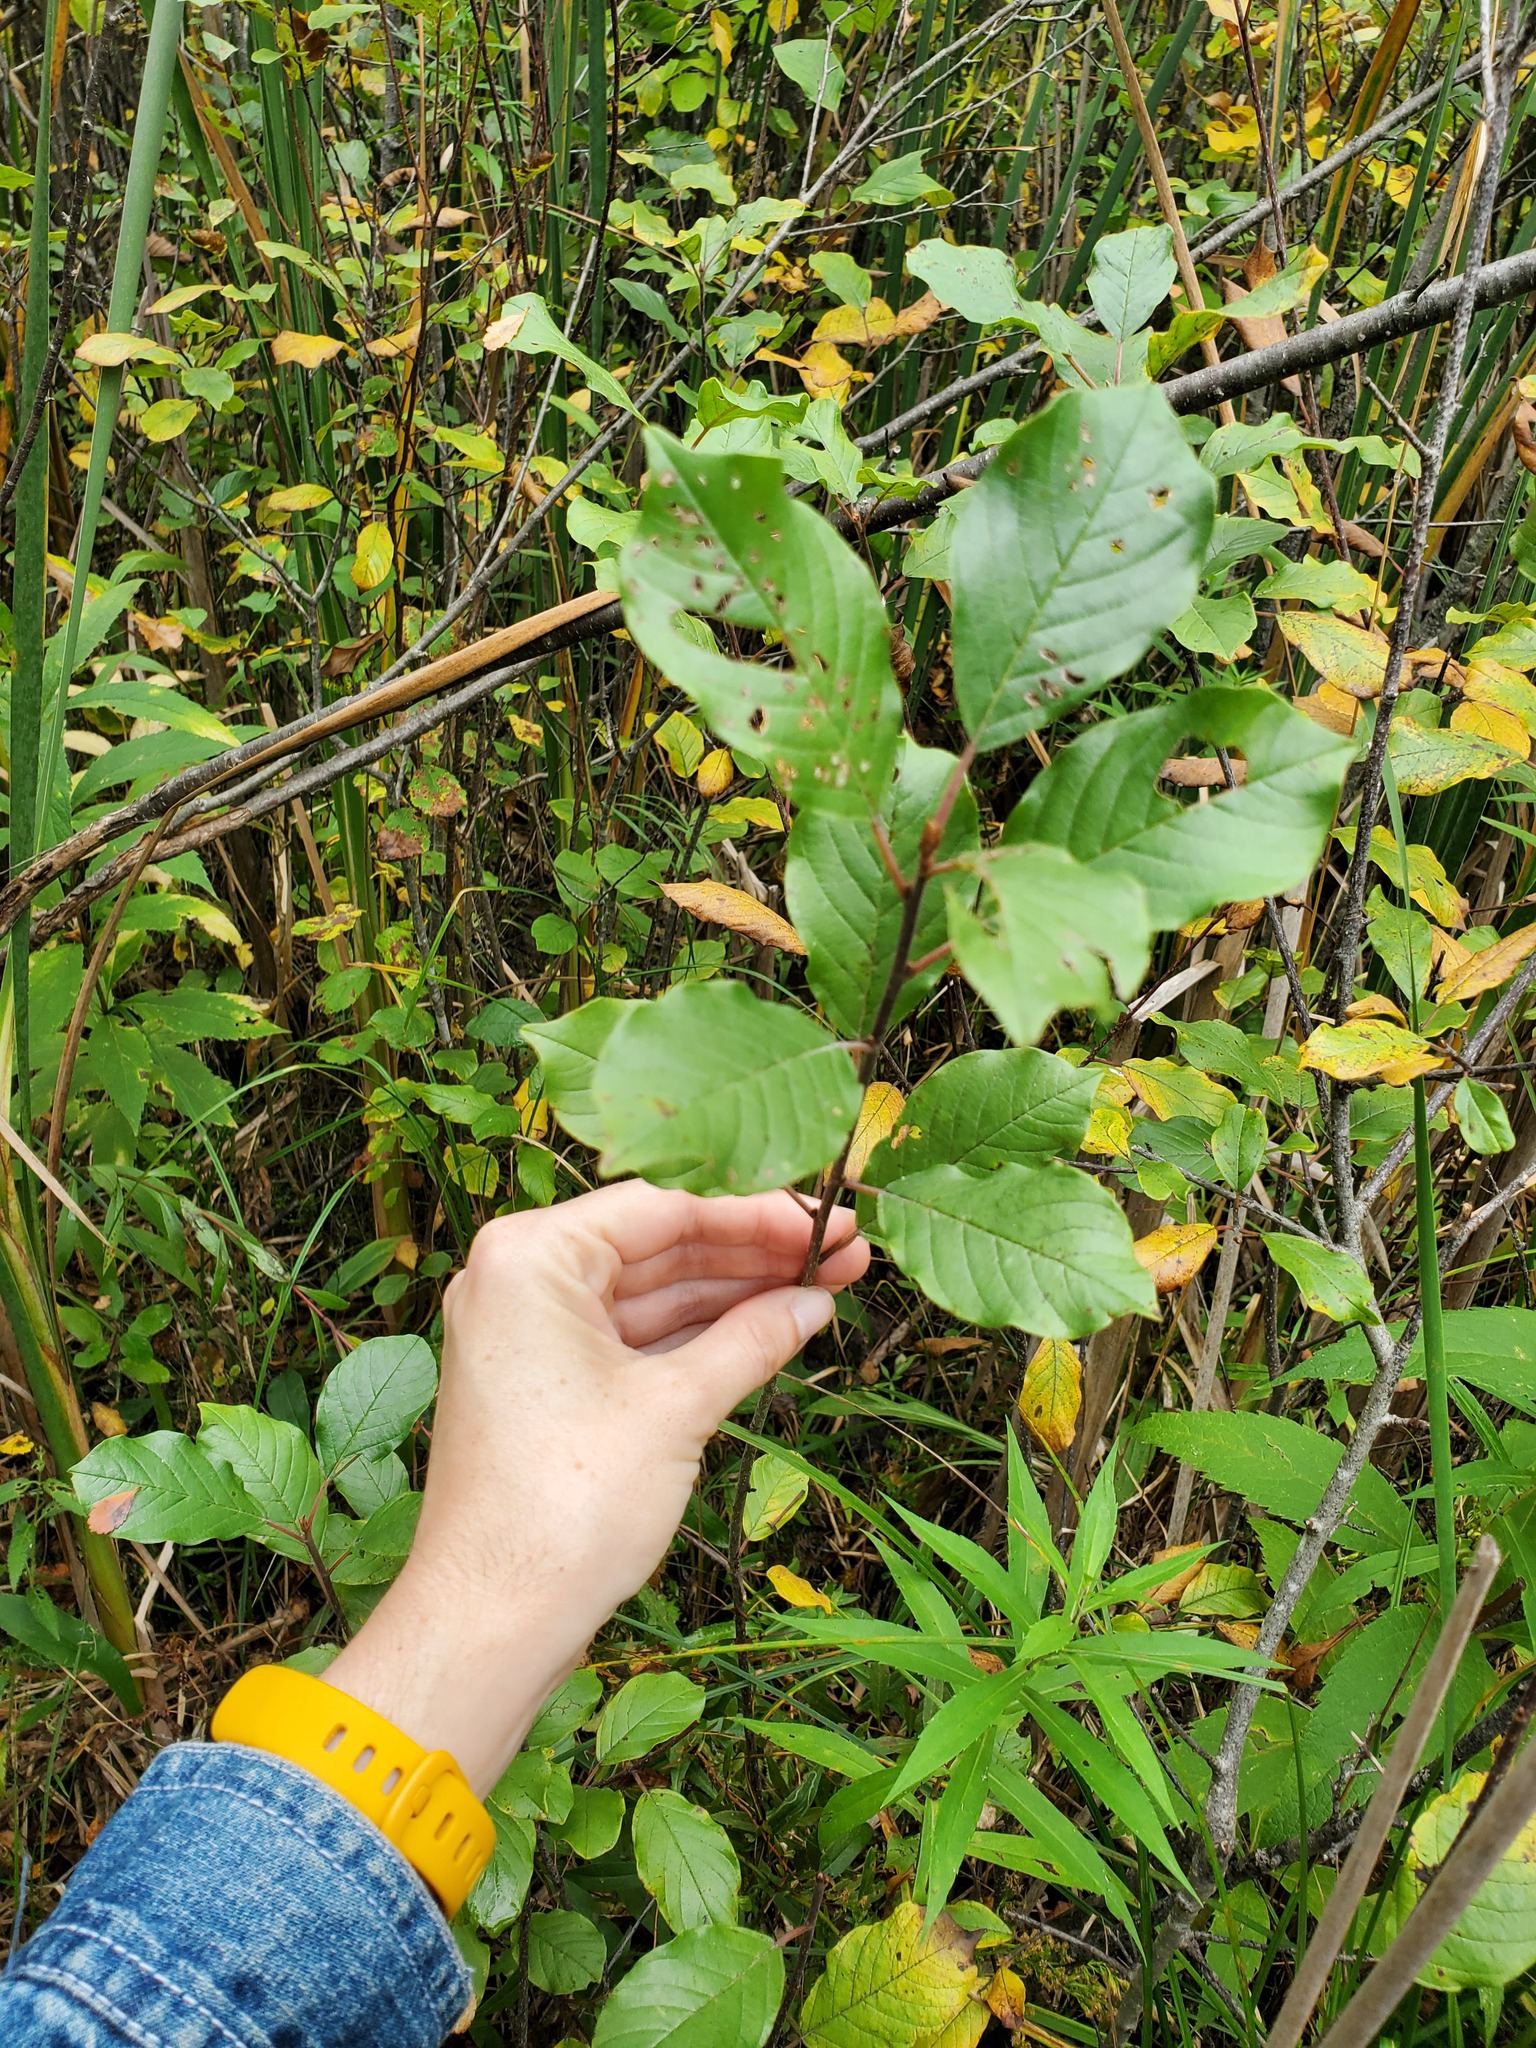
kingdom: Plantae
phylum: Tracheophyta
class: Magnoliopsida
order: Rosales
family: Rhamnaceae
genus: Frangula
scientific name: Frangula alnus
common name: Alder buckthorn
